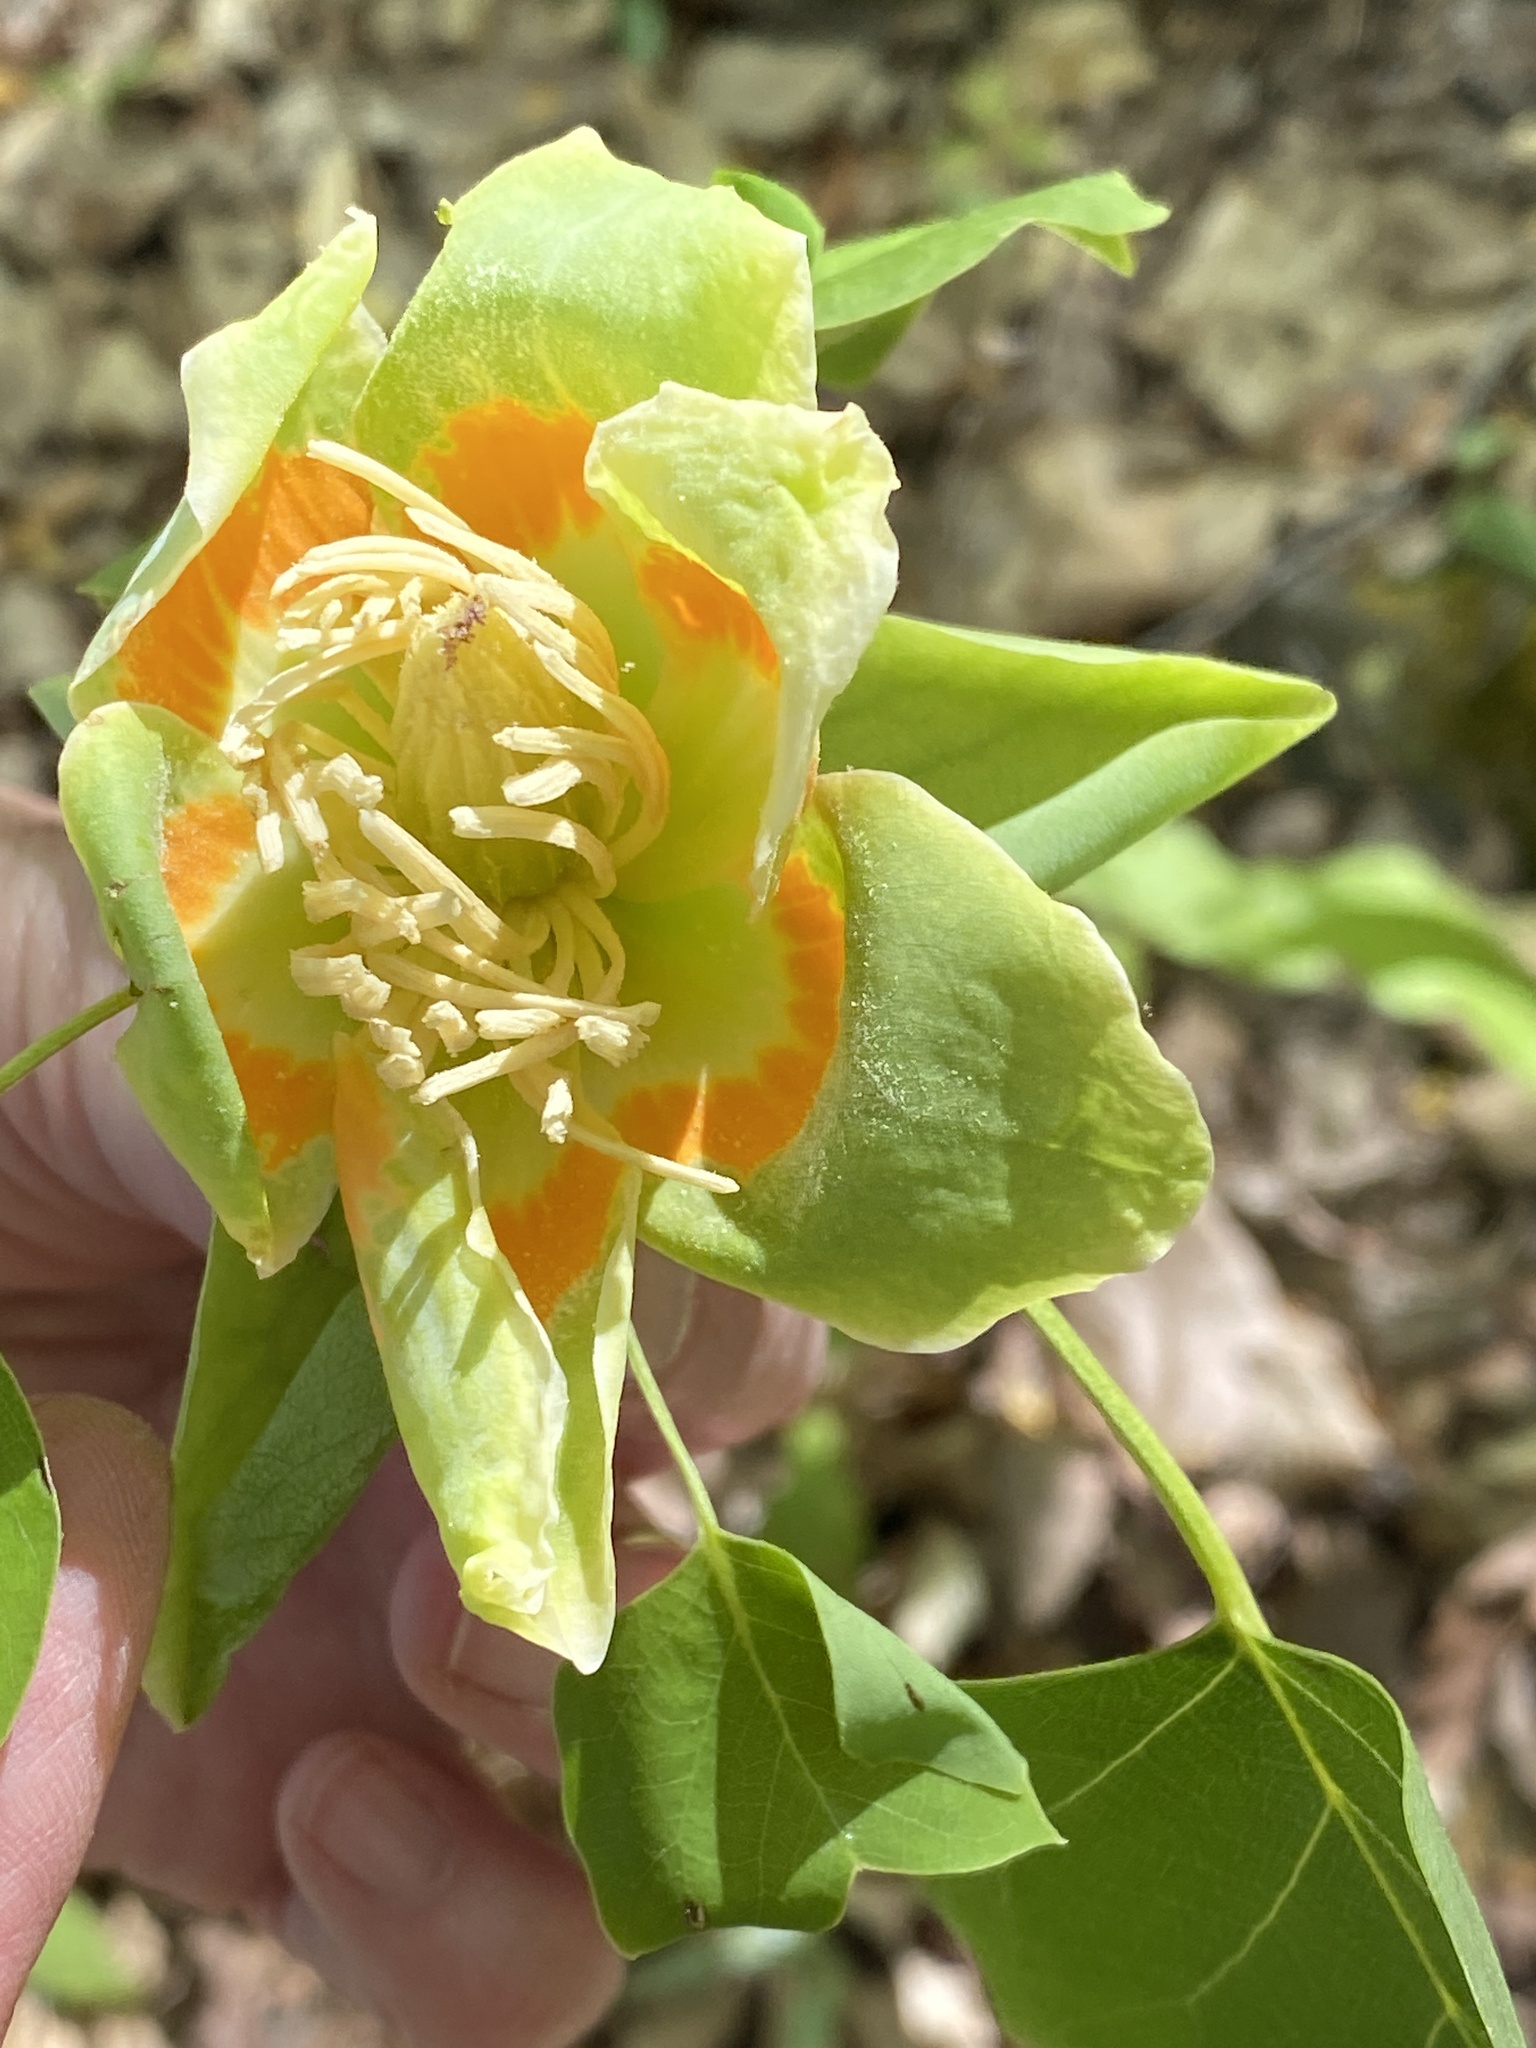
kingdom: Plantae
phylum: Tracheophyta
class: Magnoliopsida
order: Magnoliales
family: Magnoliaceae
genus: Liriodendron
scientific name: Liriodendron tulipifera
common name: Tulip tree
